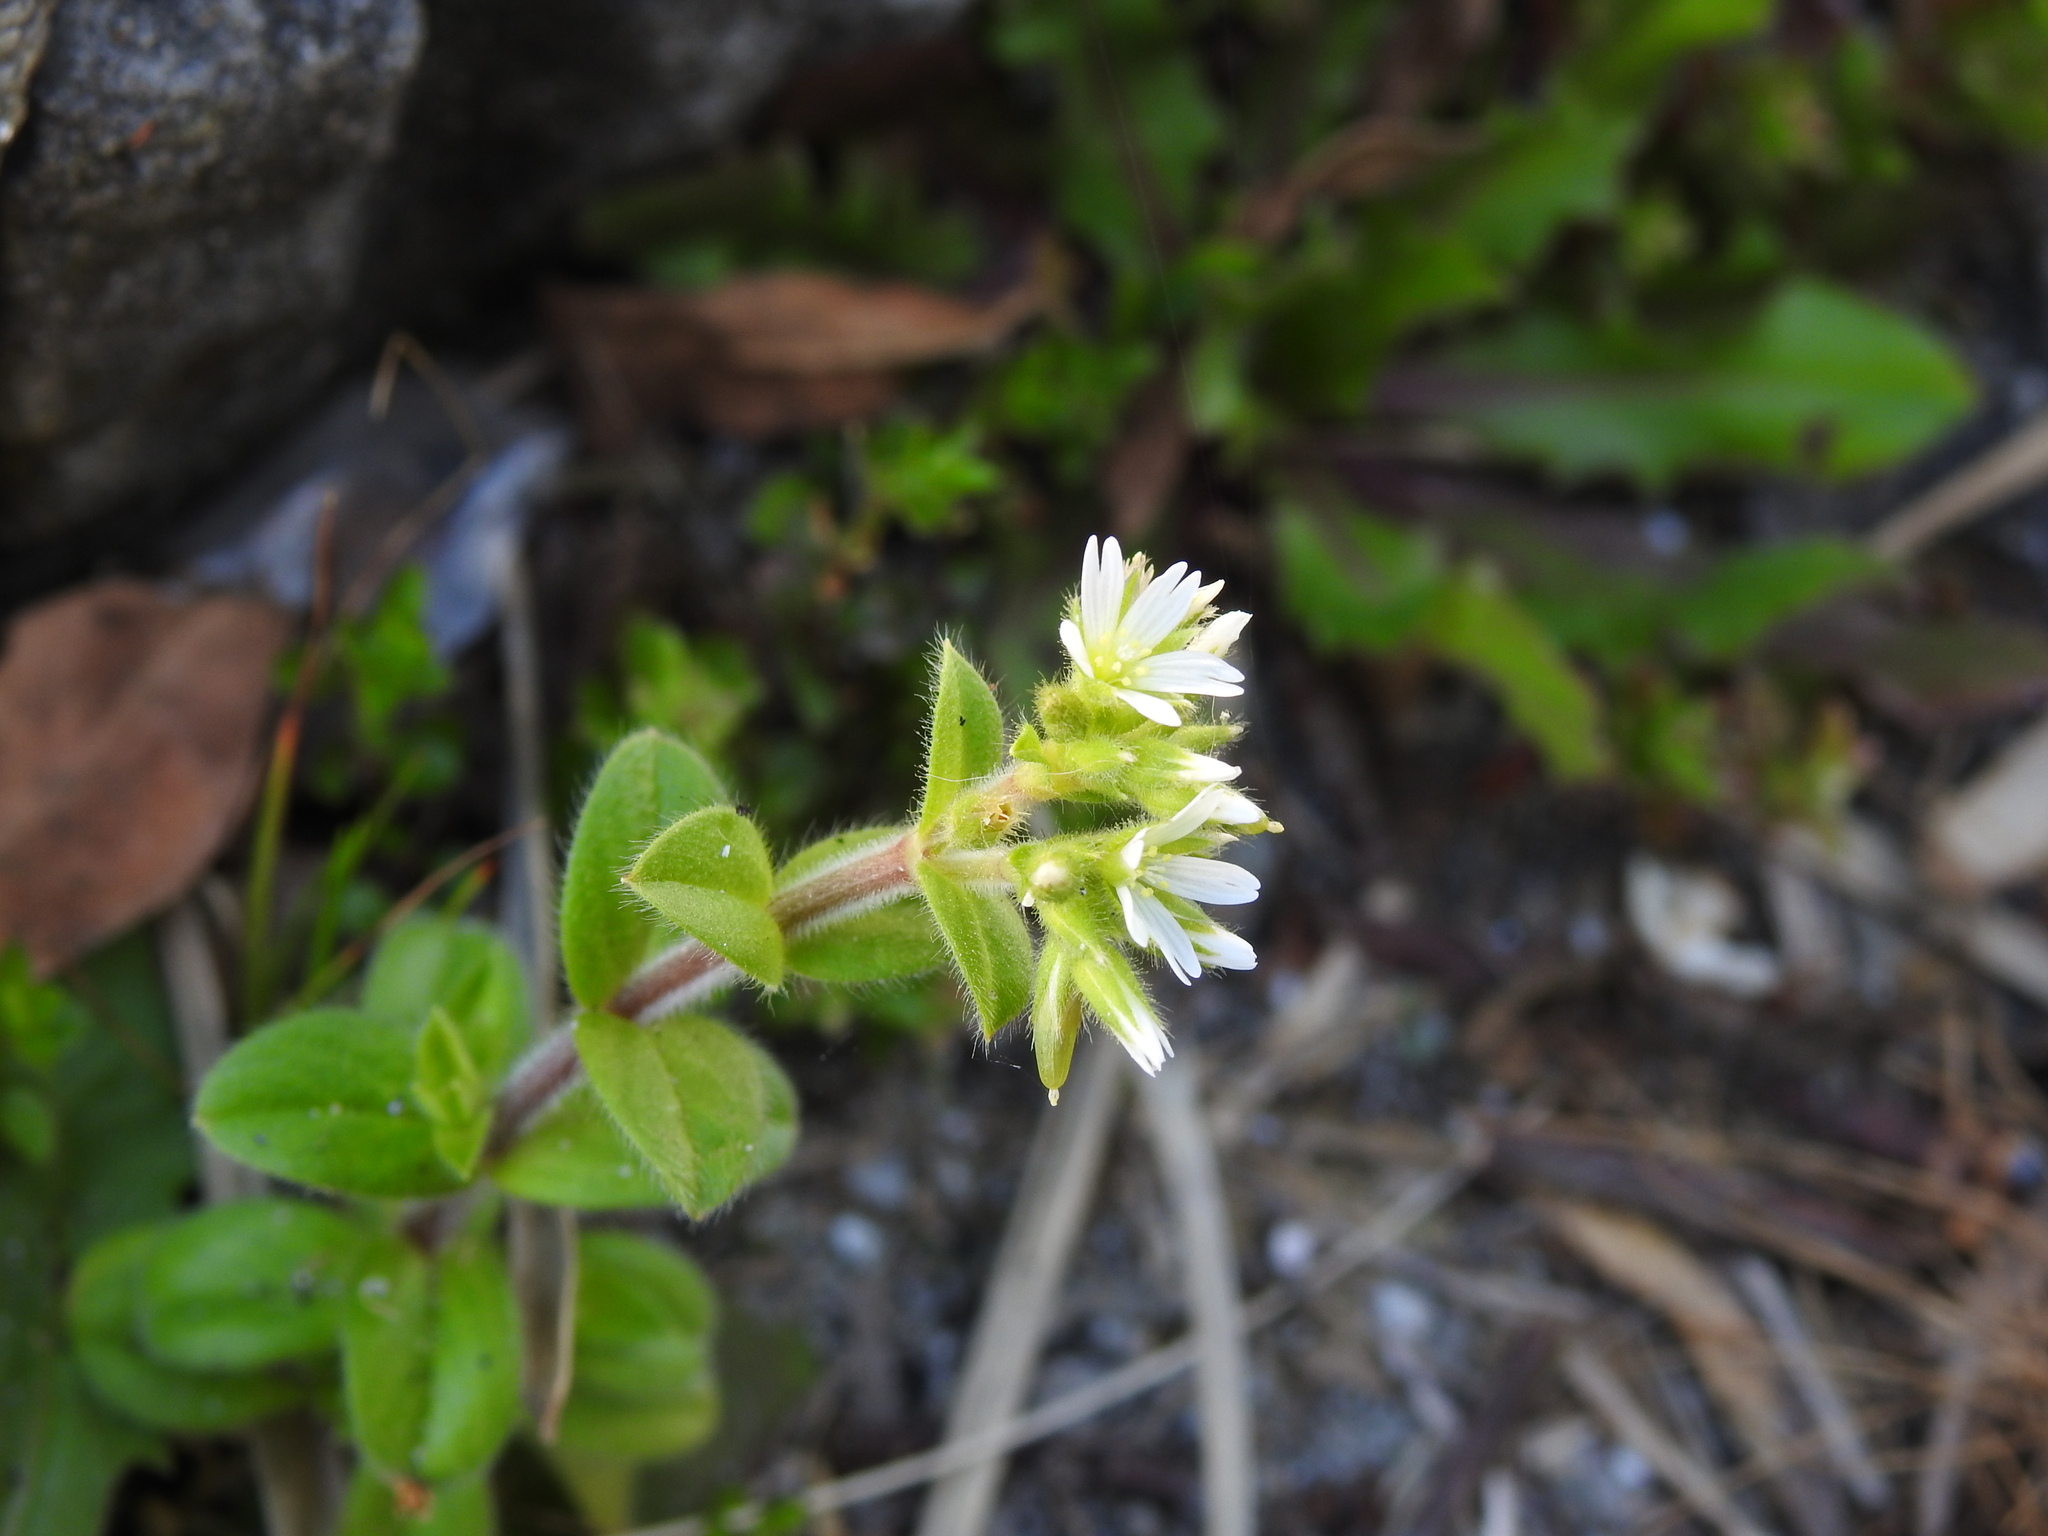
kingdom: Plantae
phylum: Tracheophyta
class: Magnoliopsida
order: Caryophyllales
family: Caryophyllaceae
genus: Cerastium
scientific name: Cerastium glomeratum
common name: Sticky chickweed
